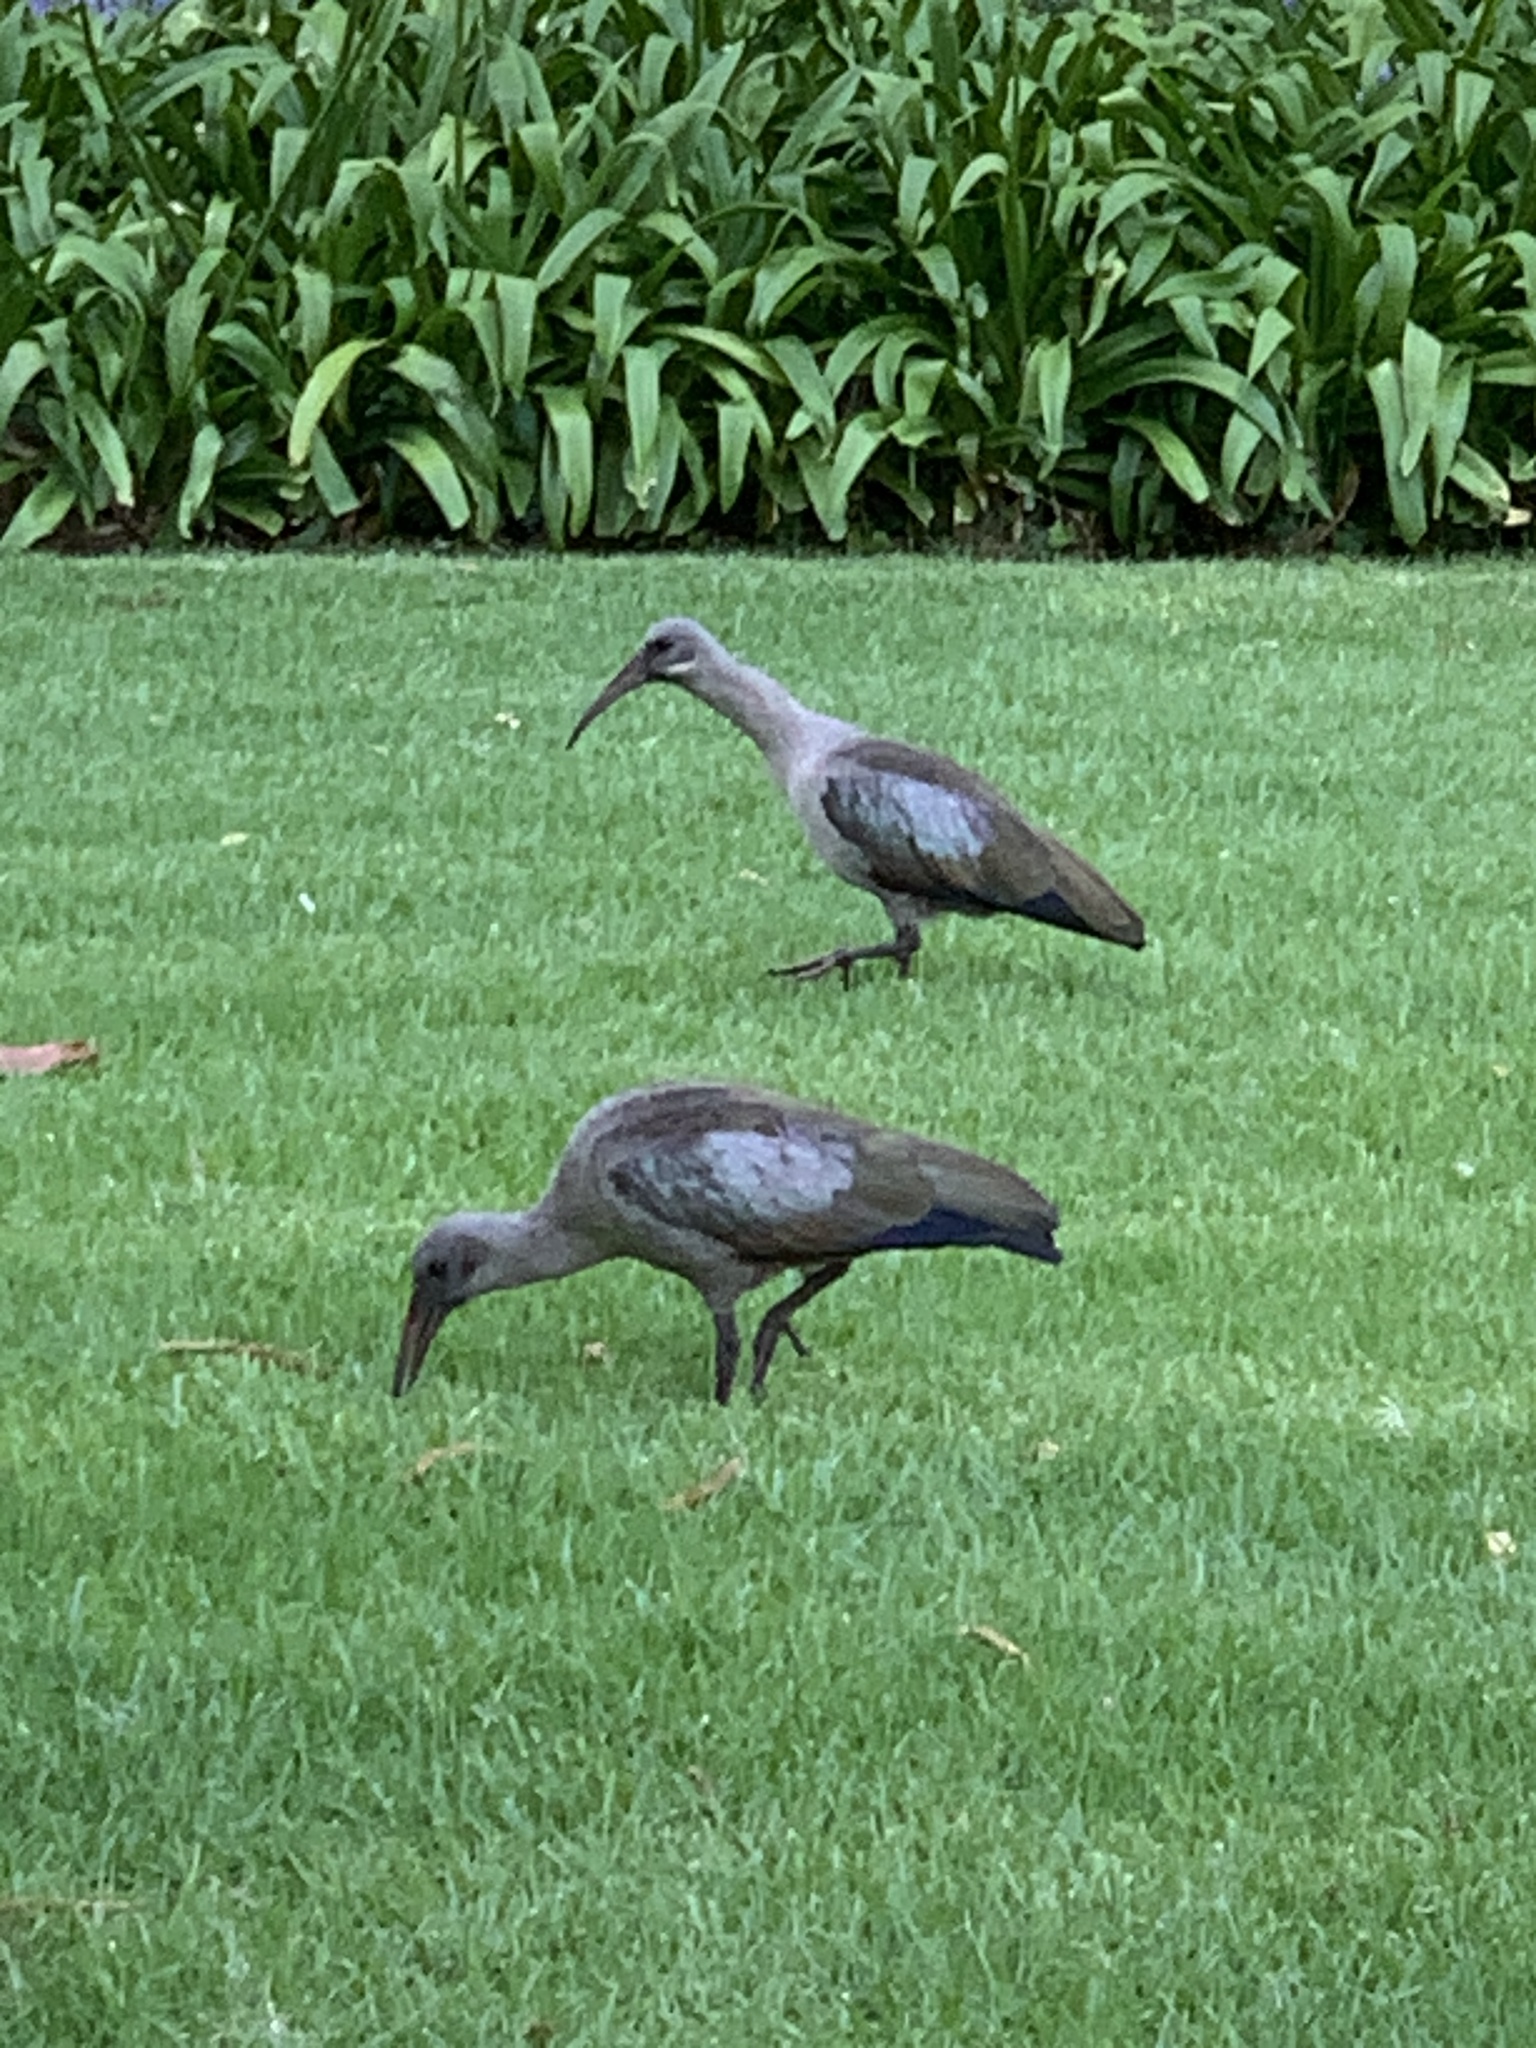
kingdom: Animalia
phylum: Chordata
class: Aves
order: Pelecaniformes
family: Threskiornithidae
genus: Bostrychia
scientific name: Bostrychia hagedash
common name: Hadada ibis
